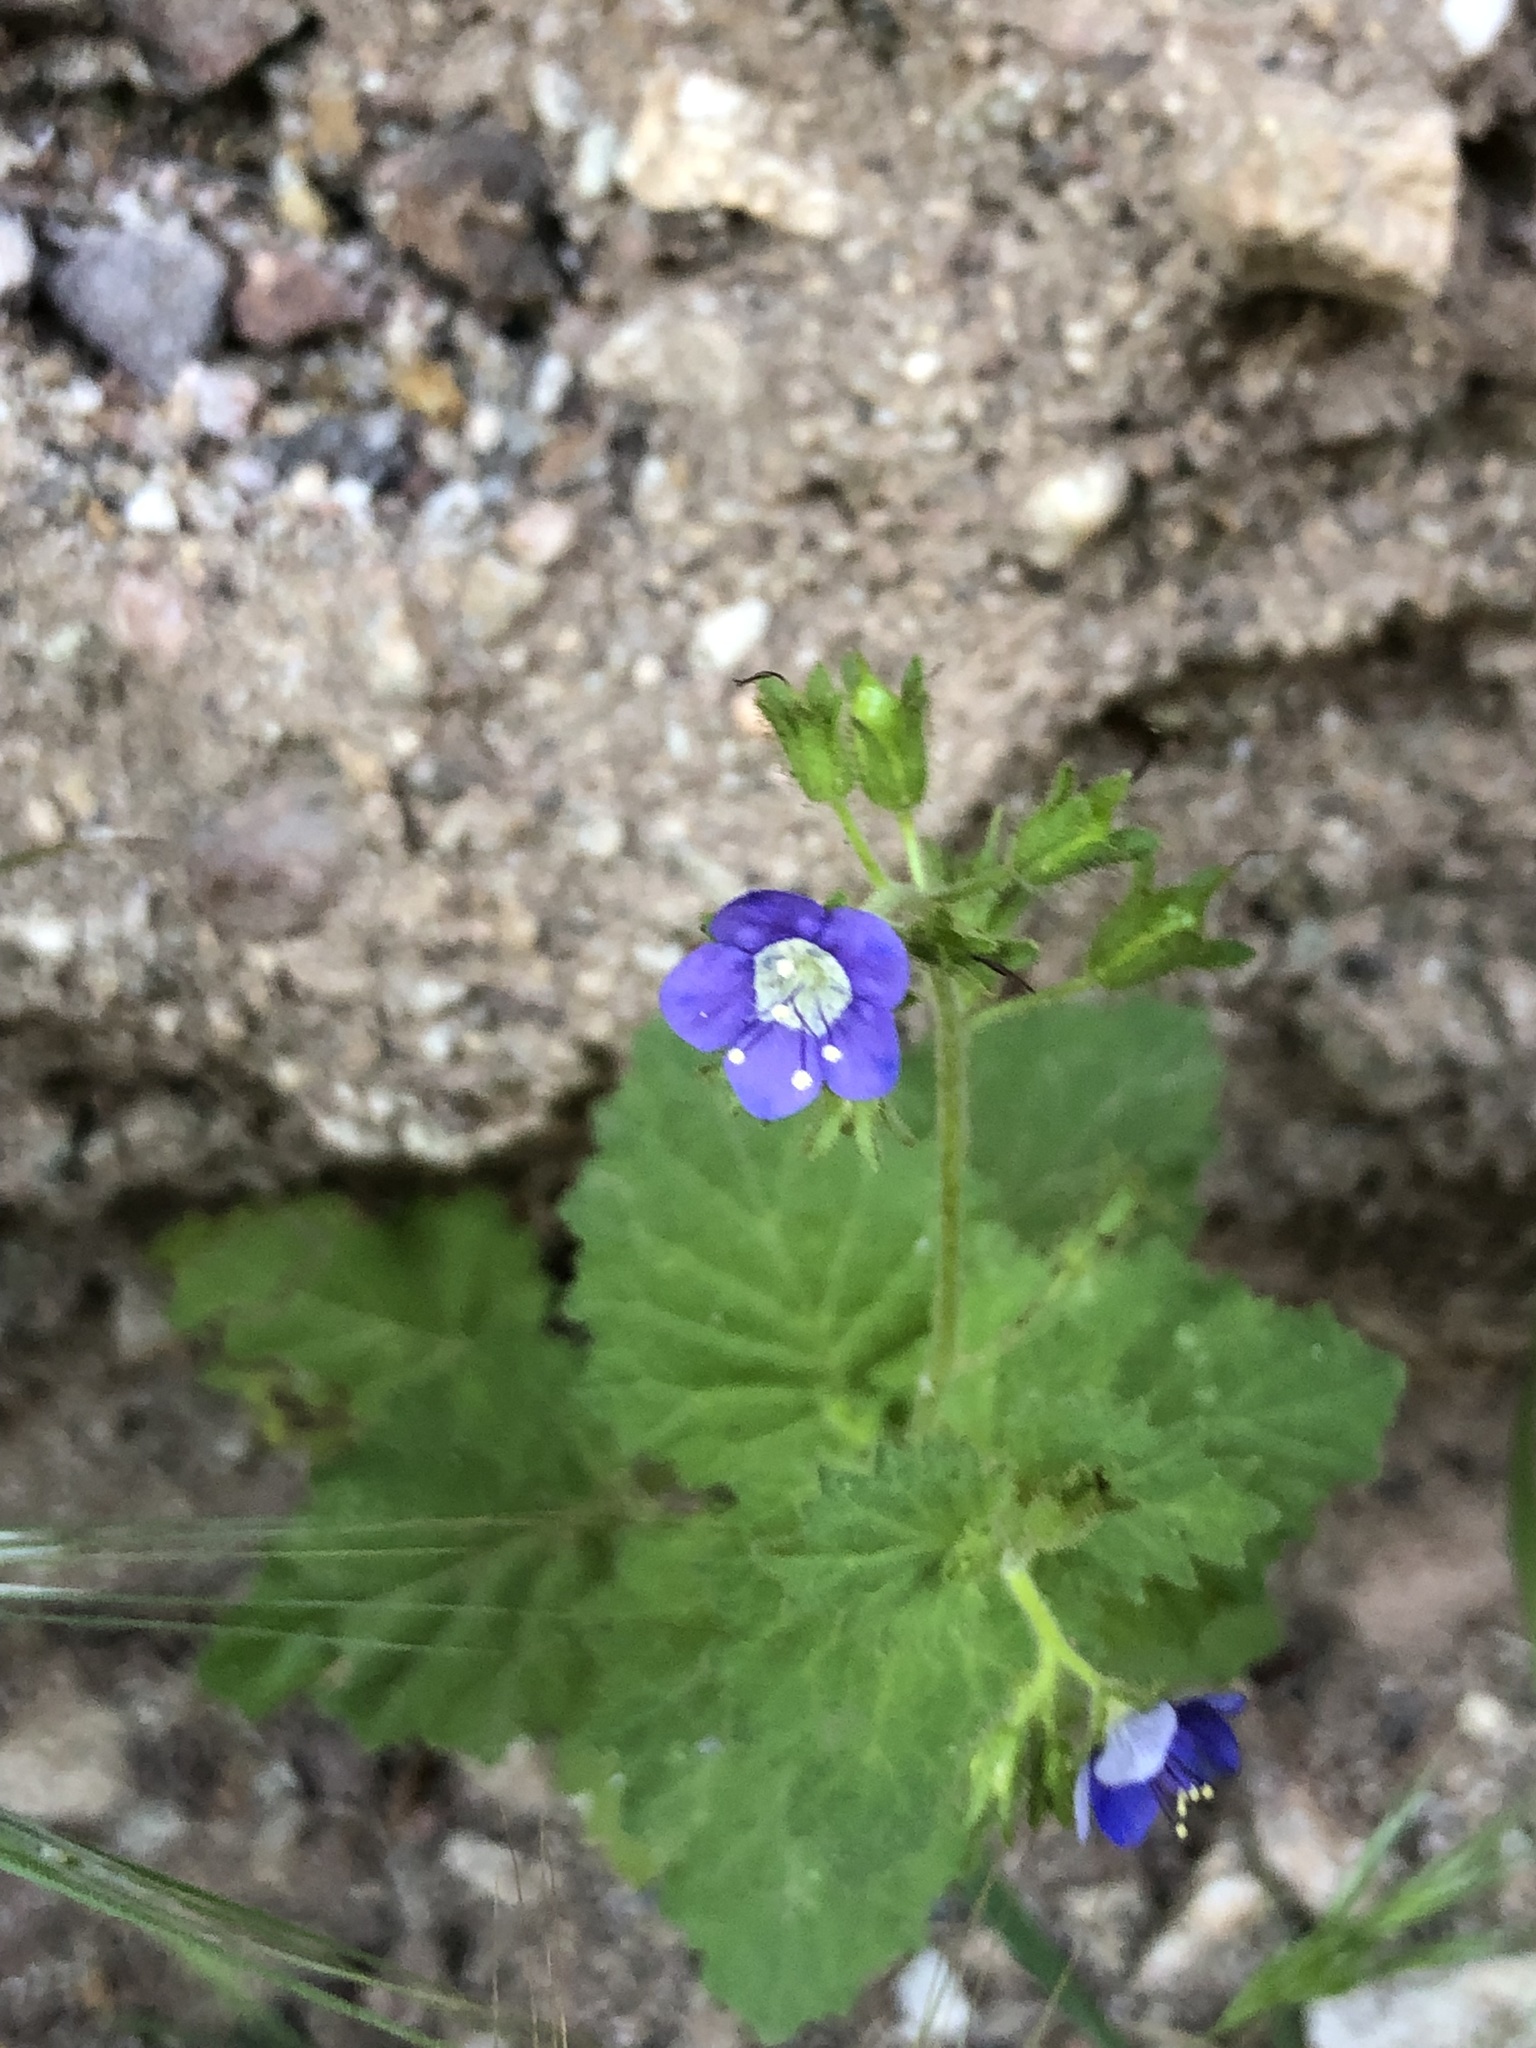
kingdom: Plantae
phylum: Tracheophyta
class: Magnoliopsida
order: Boraginales
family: Hydrophyllaceae
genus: Phacelia
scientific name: Phacelia viscida
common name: Sticky phacelia
